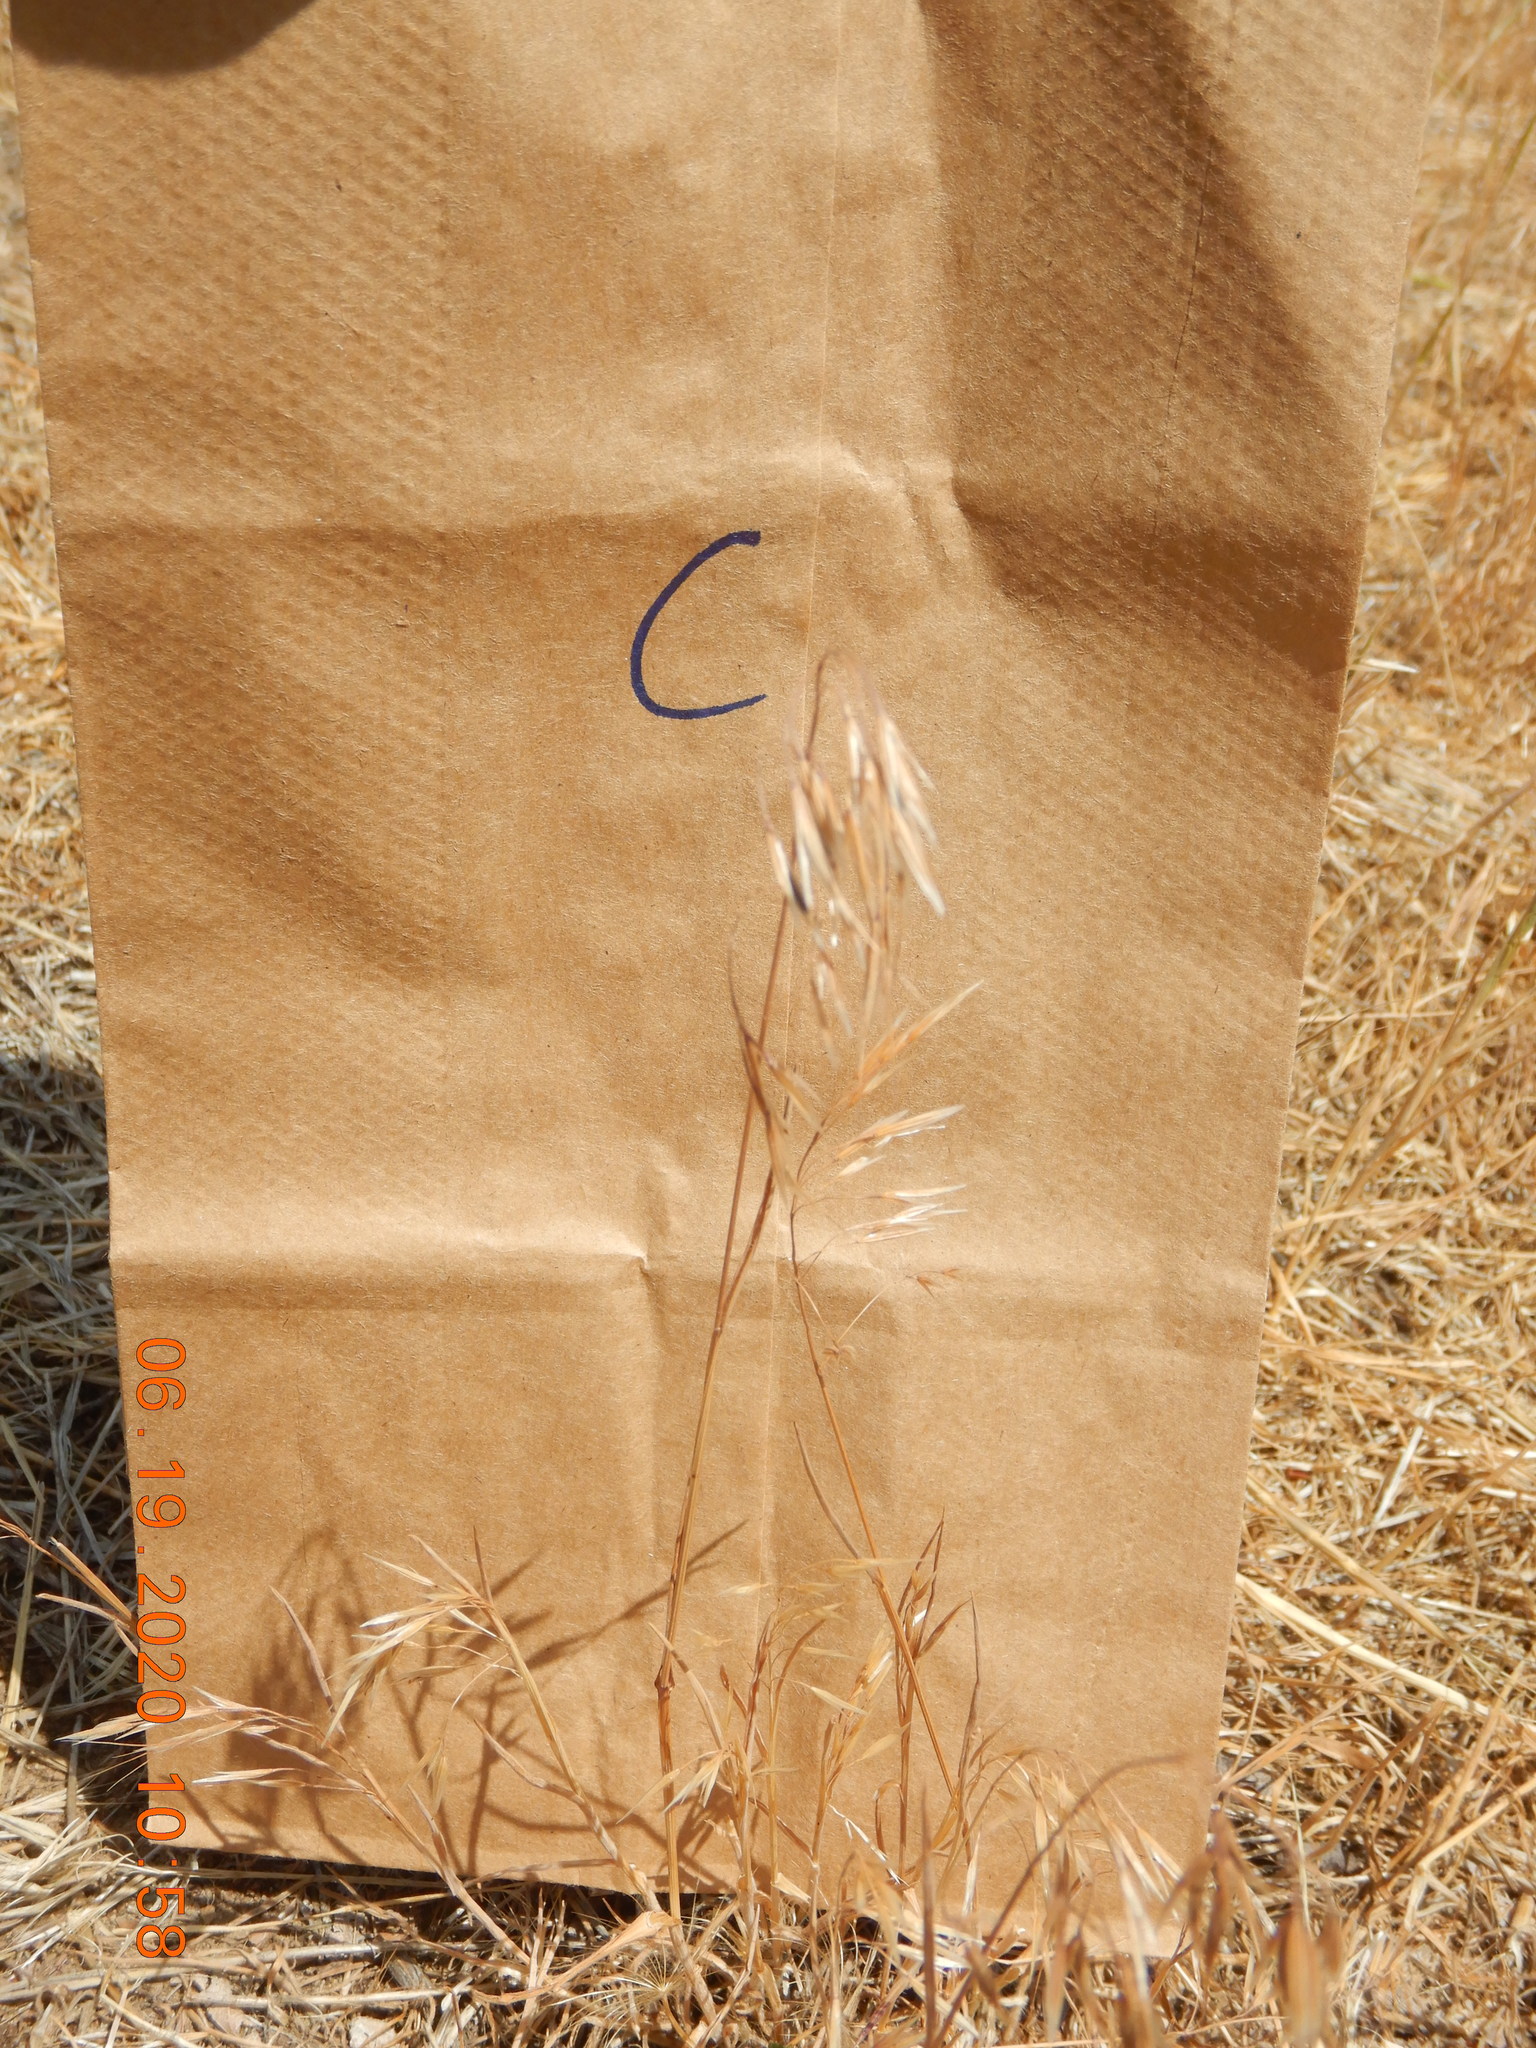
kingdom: Plantae
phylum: Tracheophyta
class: Liliopsida
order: Poales
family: Poaceae
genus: Bromus
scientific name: Bromus tectorum
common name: Cheatgrass
